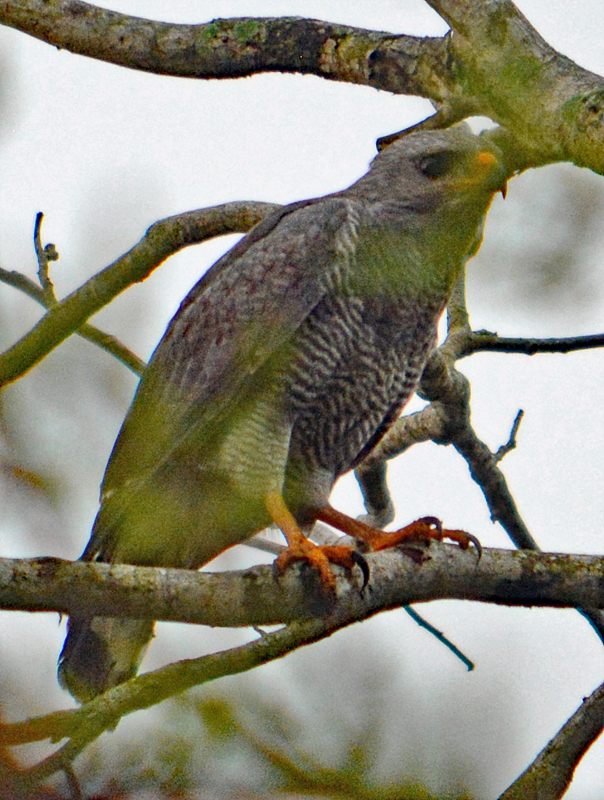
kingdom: Animalia
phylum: Chordata
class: Aves
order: Accipitriformes
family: Accipitridae
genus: Buteo
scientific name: Buteo nitidus
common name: Grey-lined hawk
